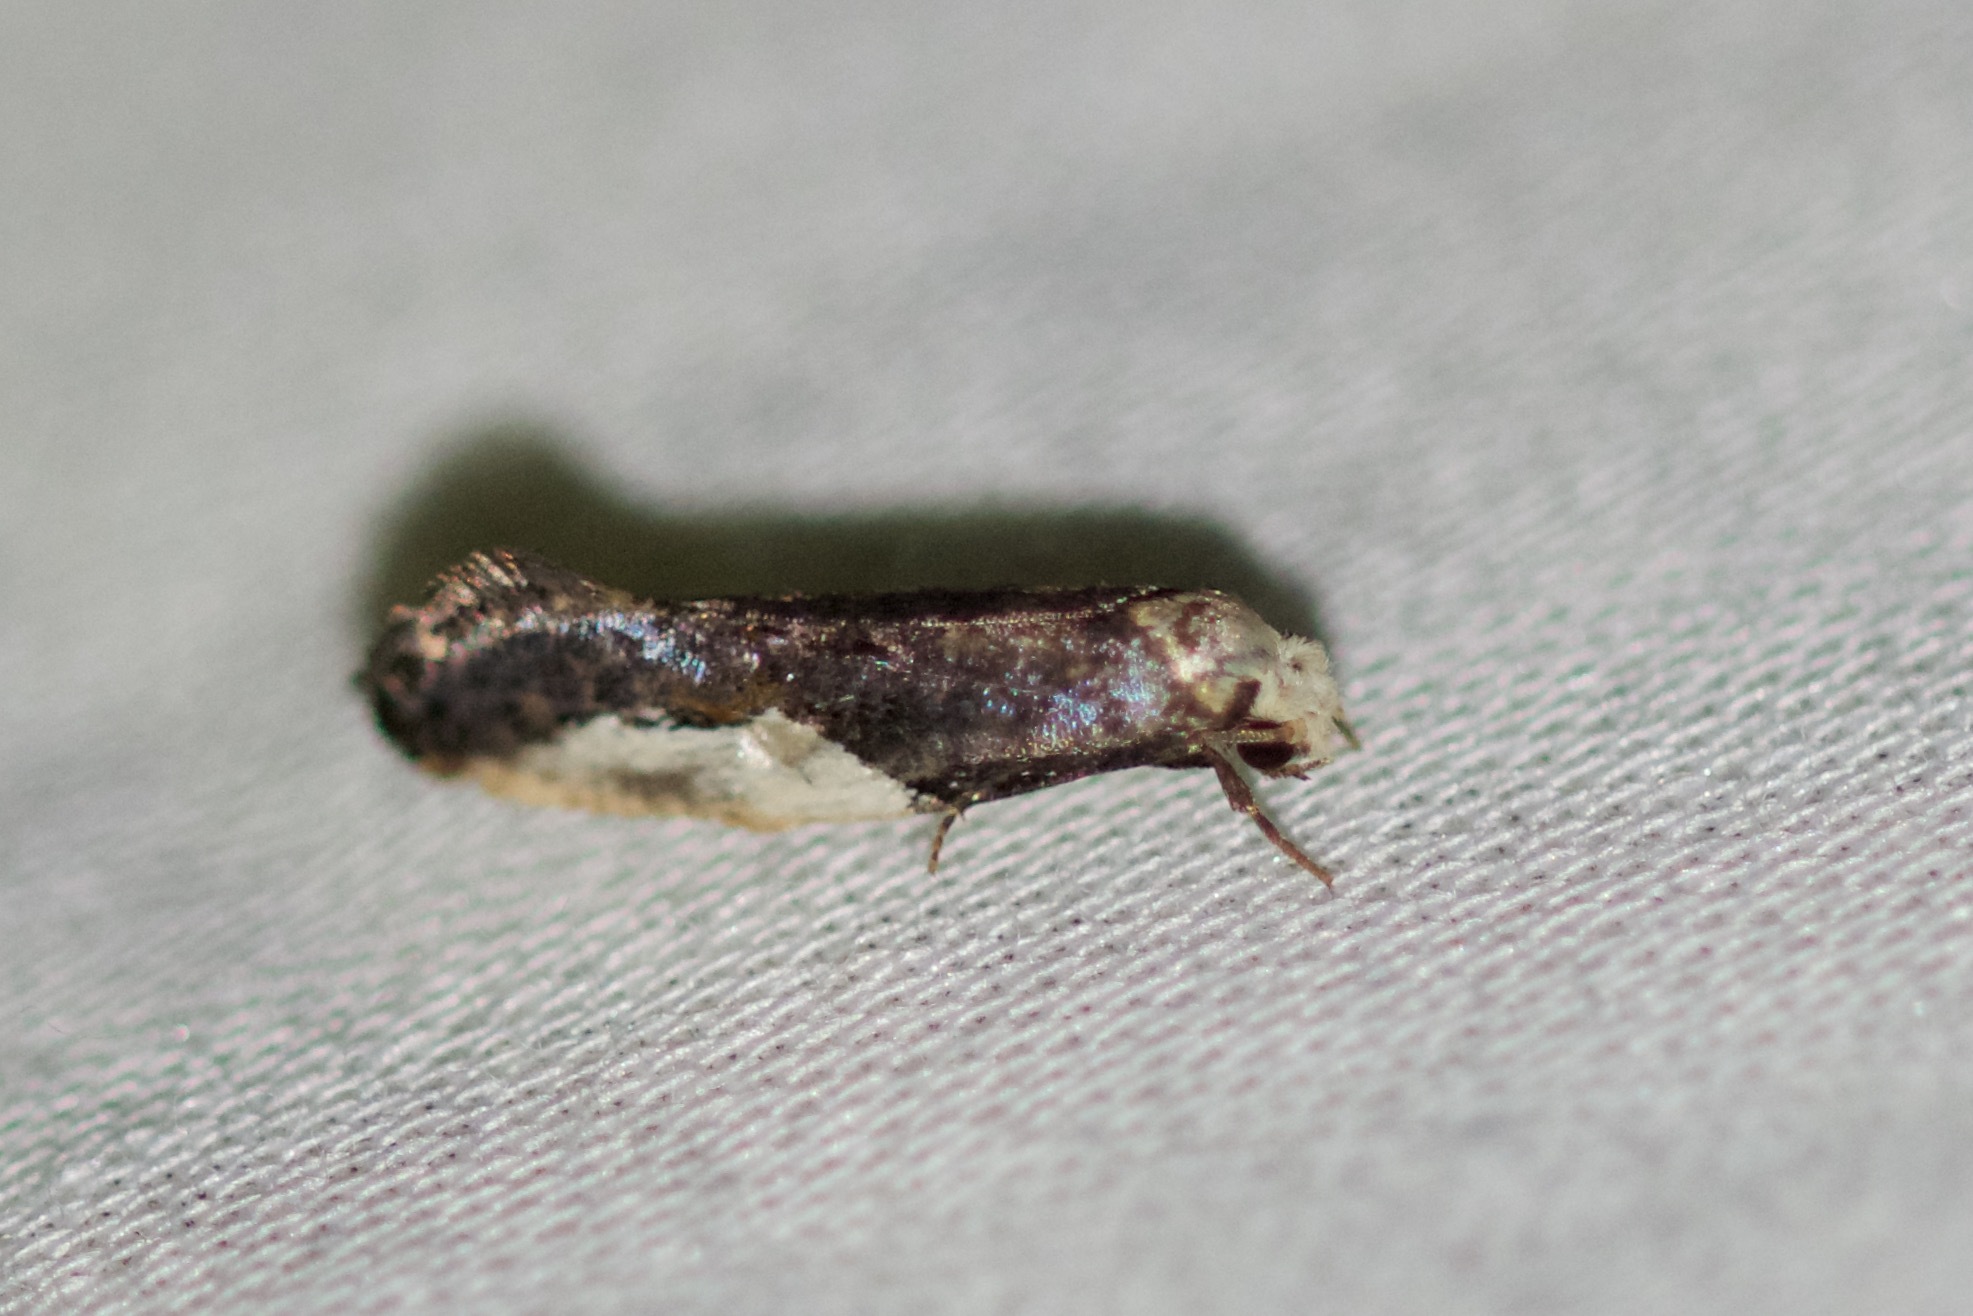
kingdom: Animalia
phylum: Arthropoda
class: Insecta
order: Lepidoptera
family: Tineidae
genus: Monopis
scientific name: Monopis longella
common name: Pavlovski's monopis moth
